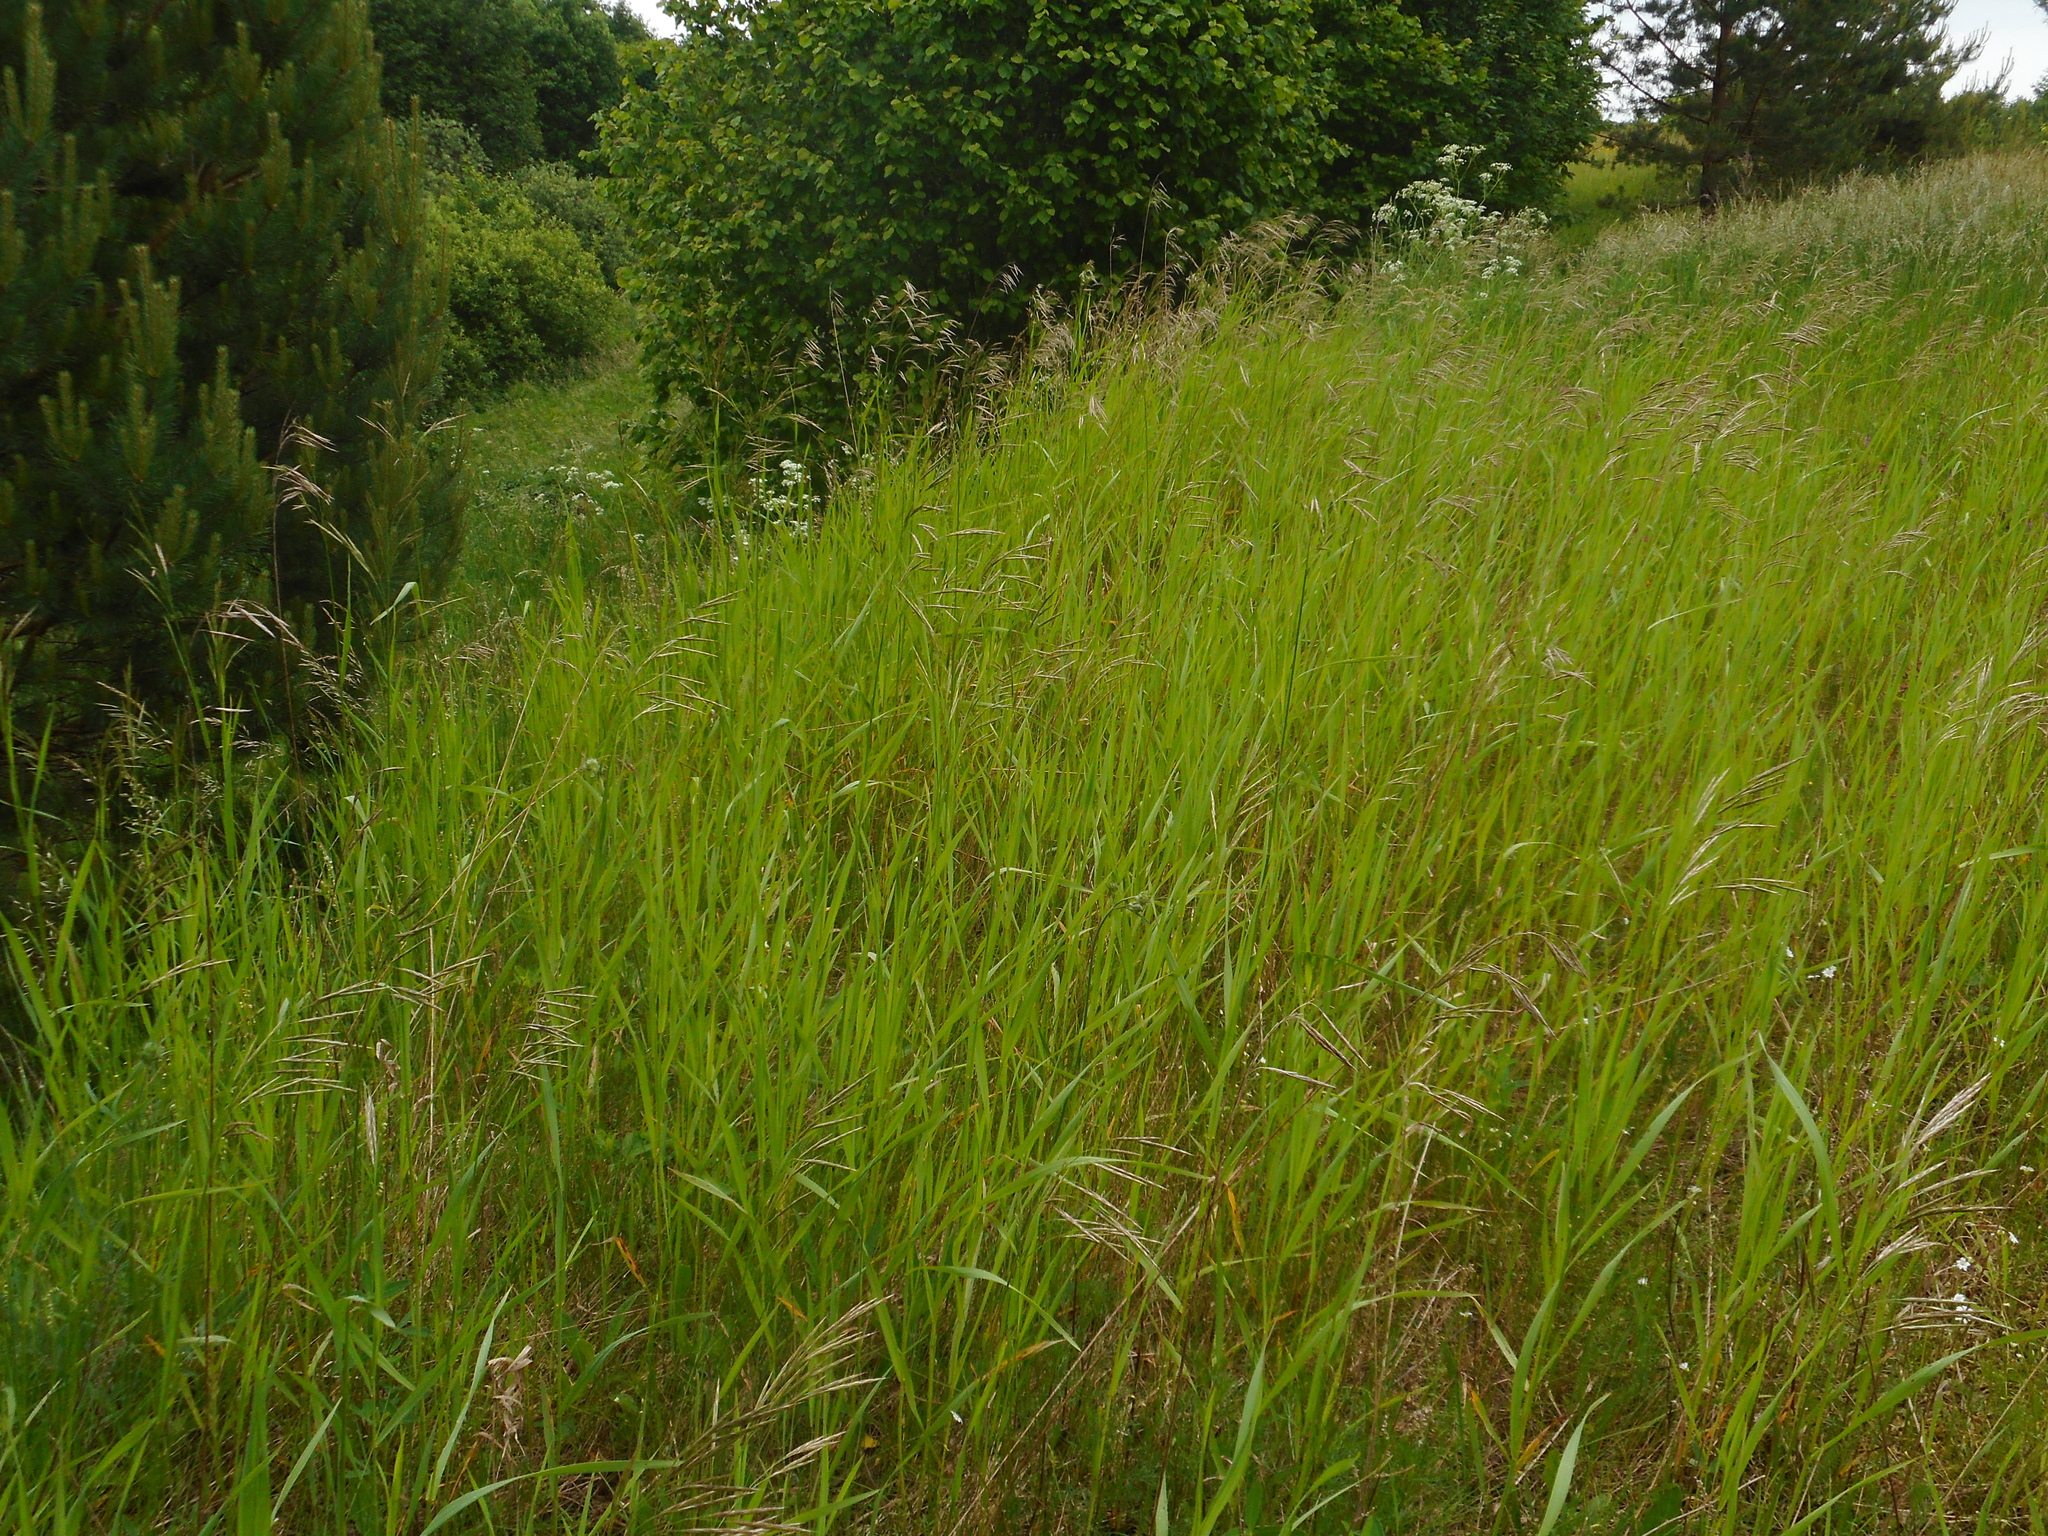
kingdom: Plantae
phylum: Tracheophyta
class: Liliopsida
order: Poales
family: Poaceae
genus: Bromus
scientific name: Bromus inermis
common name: Smooth brome
